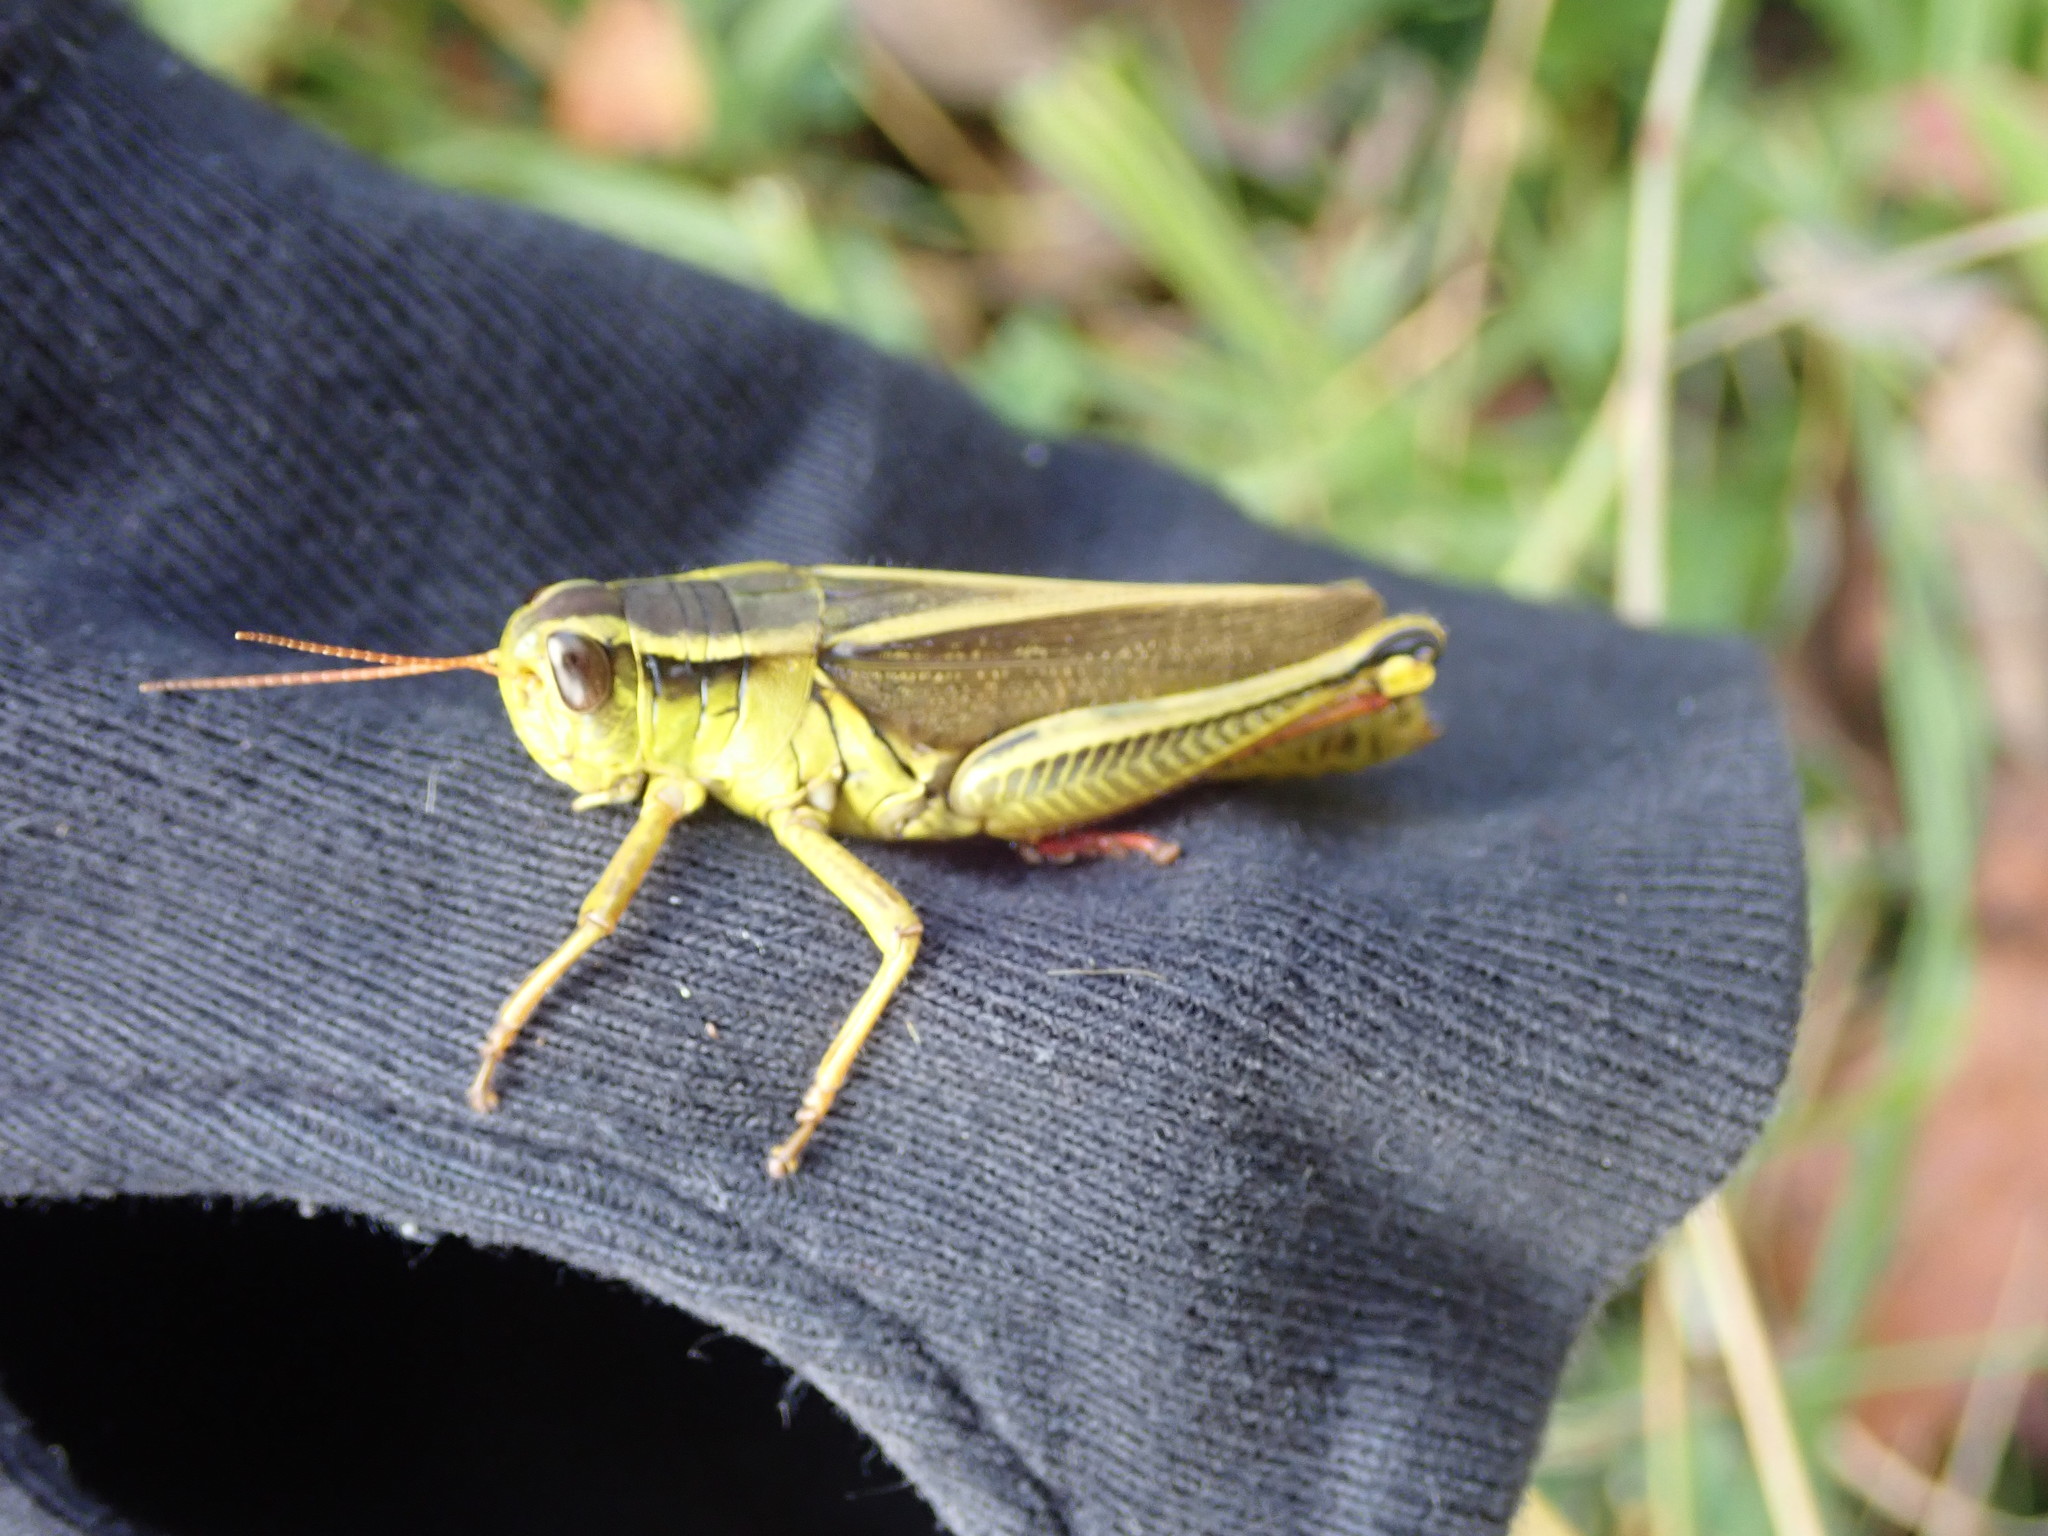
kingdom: Animalia
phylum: Arthropoda
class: Insecta
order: Orthoptera
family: Acrididae
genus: Melanoplus
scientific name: Melanoplus bivittatus
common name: Two-striped grasshopper
